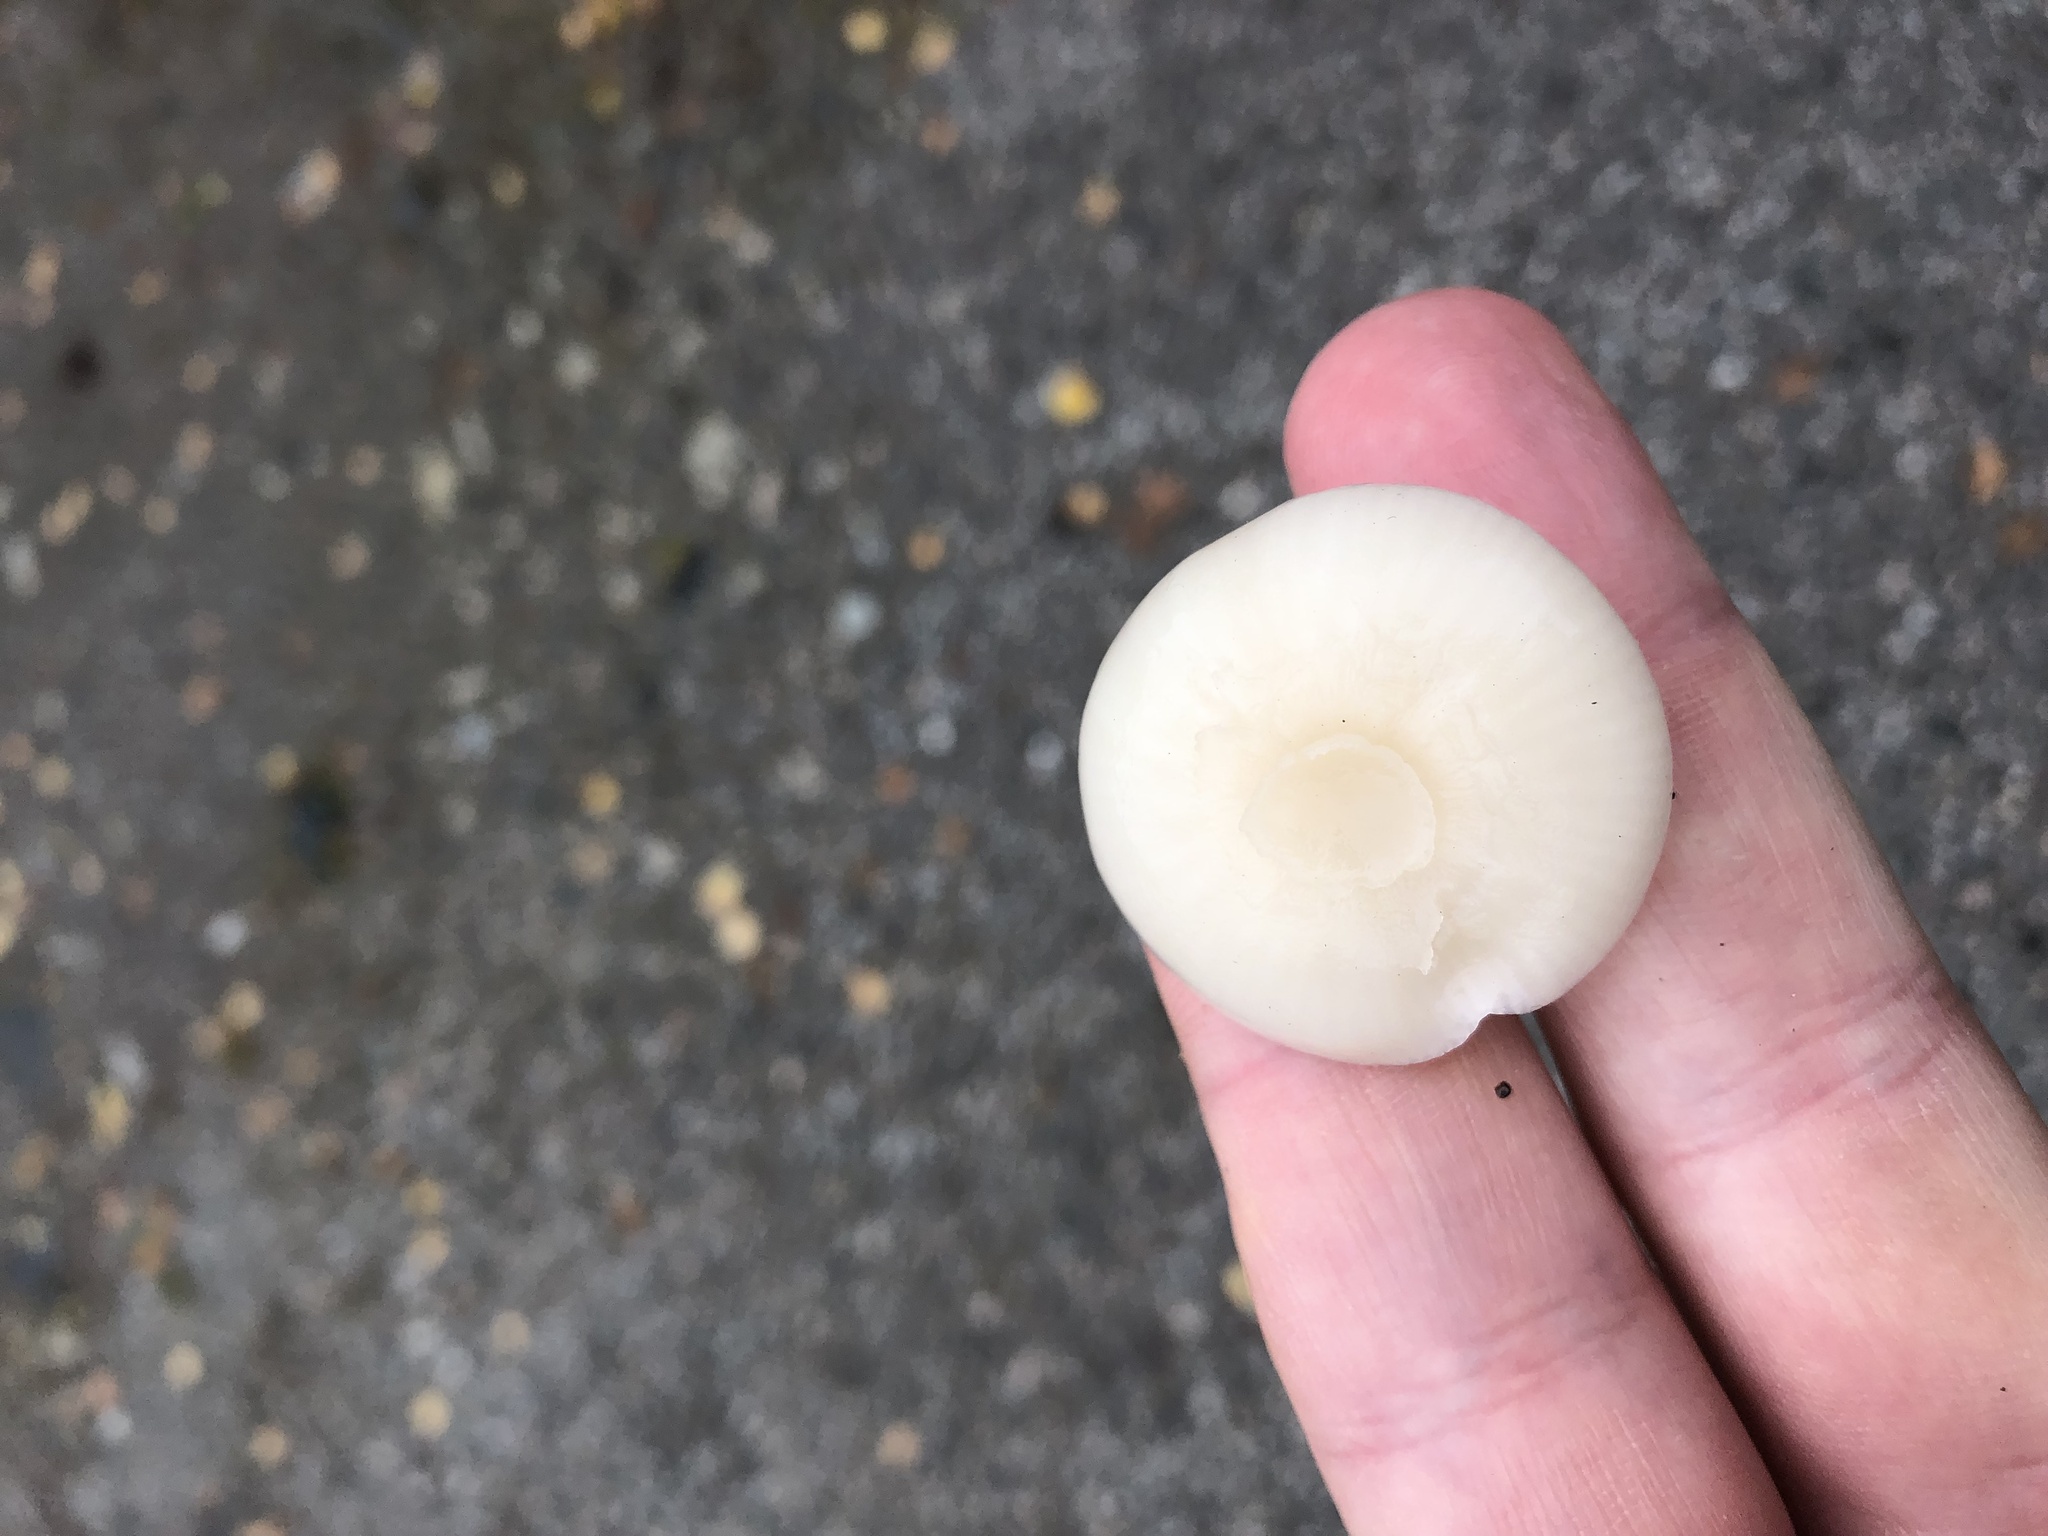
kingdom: Fungi
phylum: Basidiomycota
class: Agaricomycetes
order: Agaricales
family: Hygrophoraceae
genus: Cuphophyllus
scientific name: Cuphophyllus virgineus
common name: Snowy waxcap
